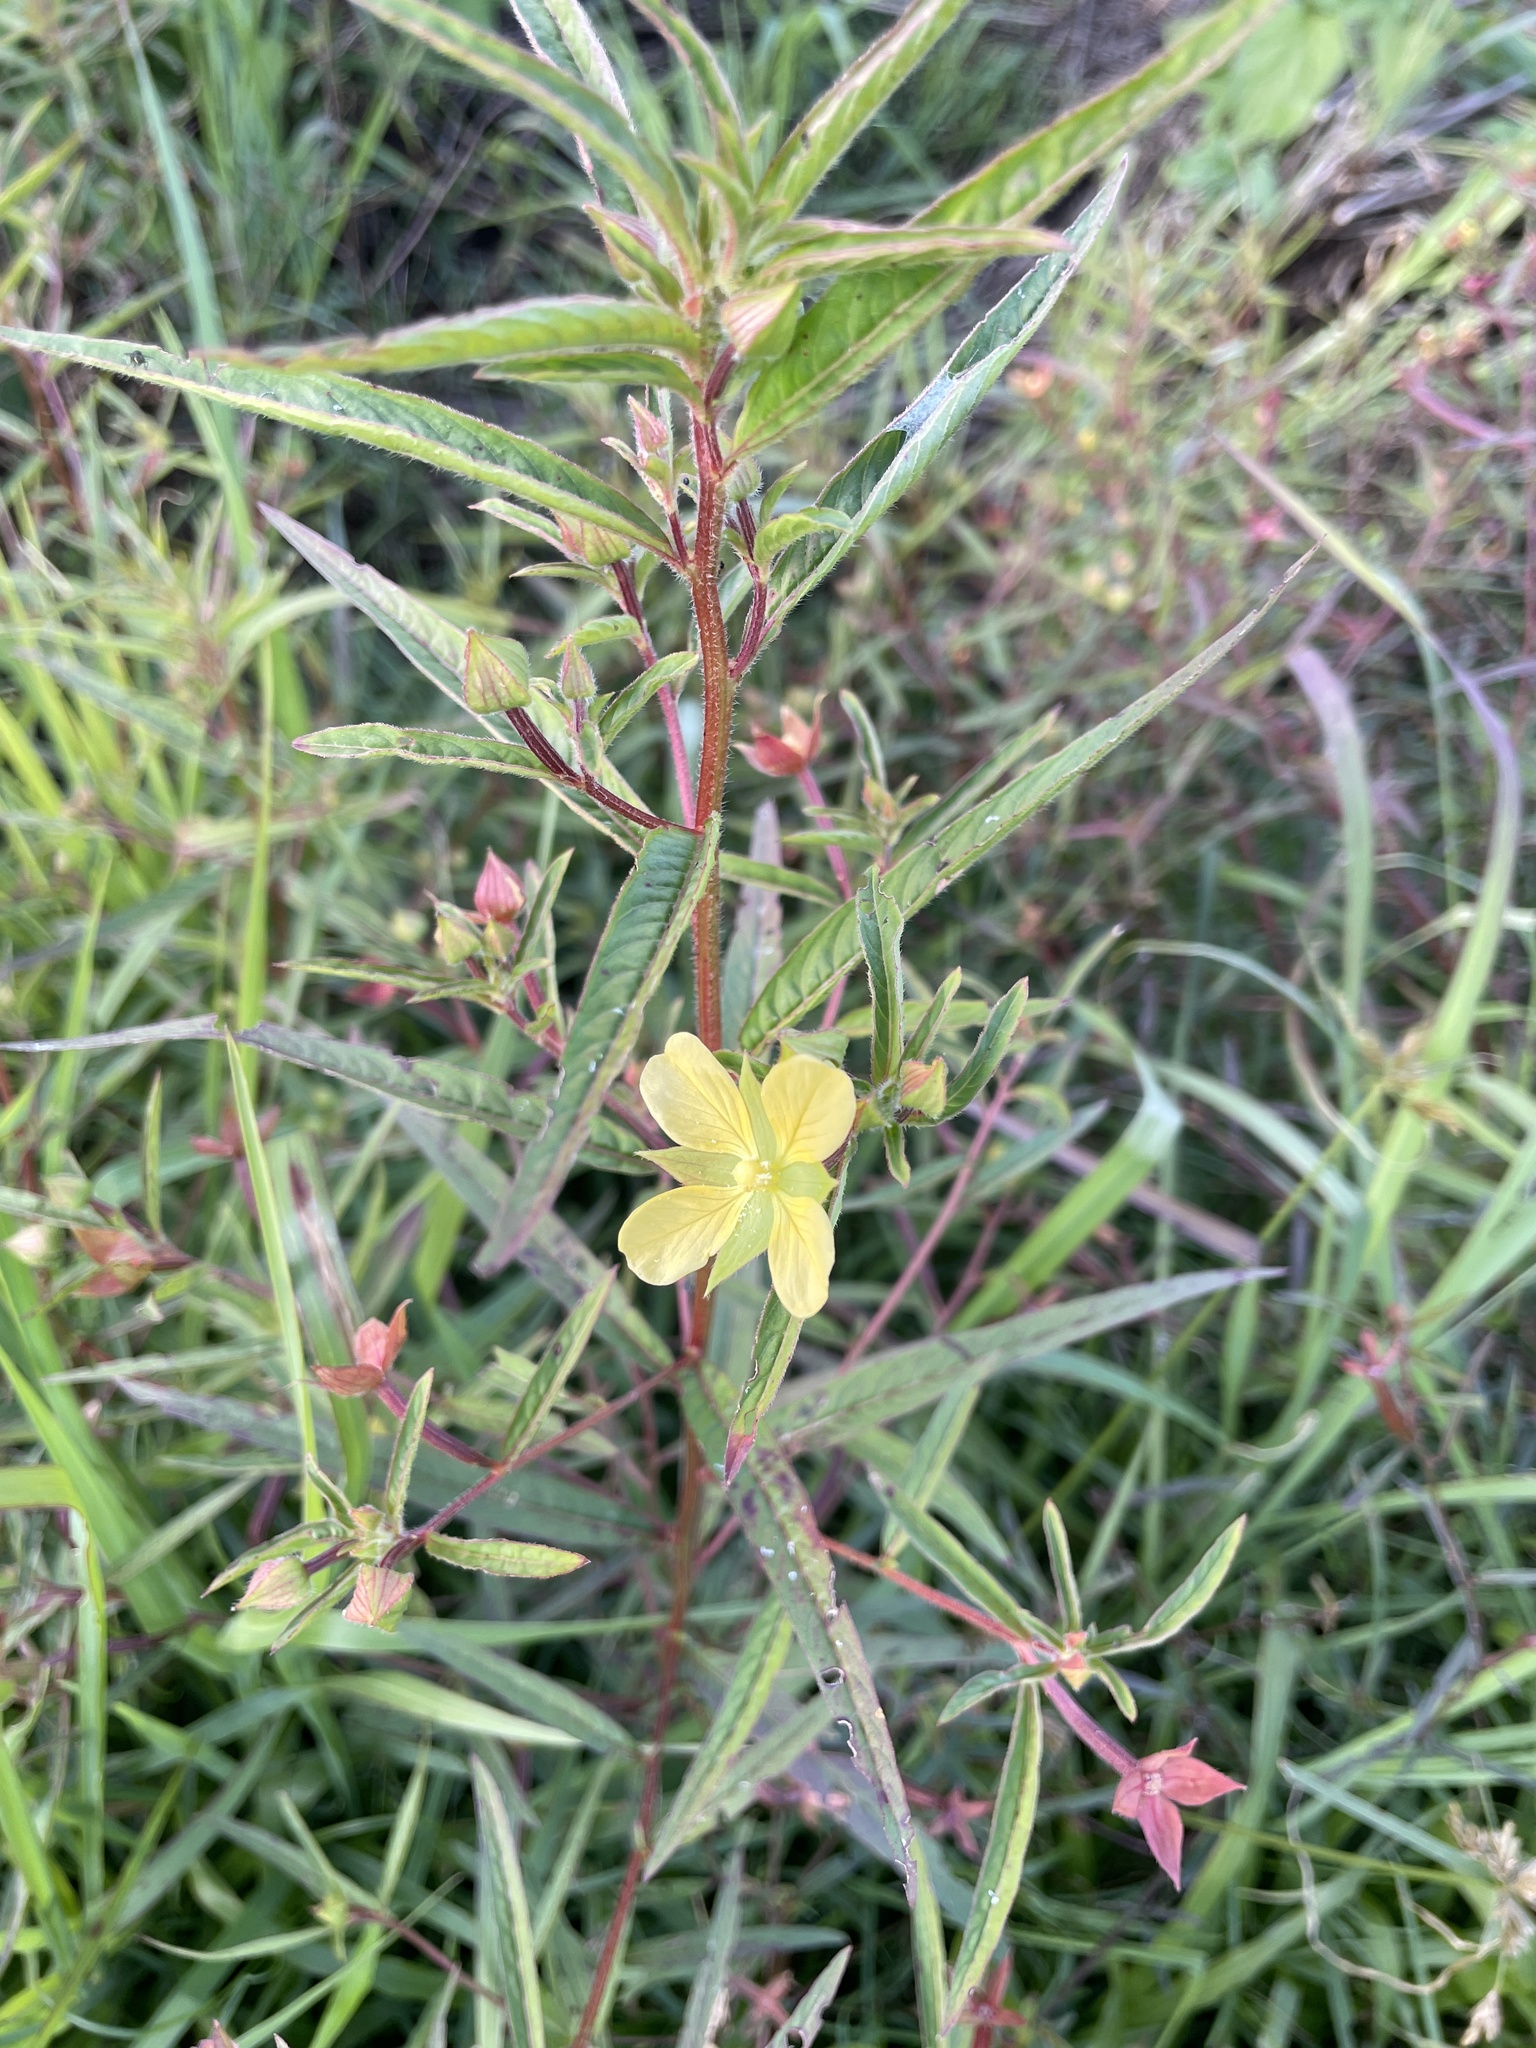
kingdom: Plantae
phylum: Tracheophyta
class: Magnoliopsida
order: Myrtales
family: Onagraceae
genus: Ludwigia
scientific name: Ludwigia octovalvis
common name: Water-primrose
